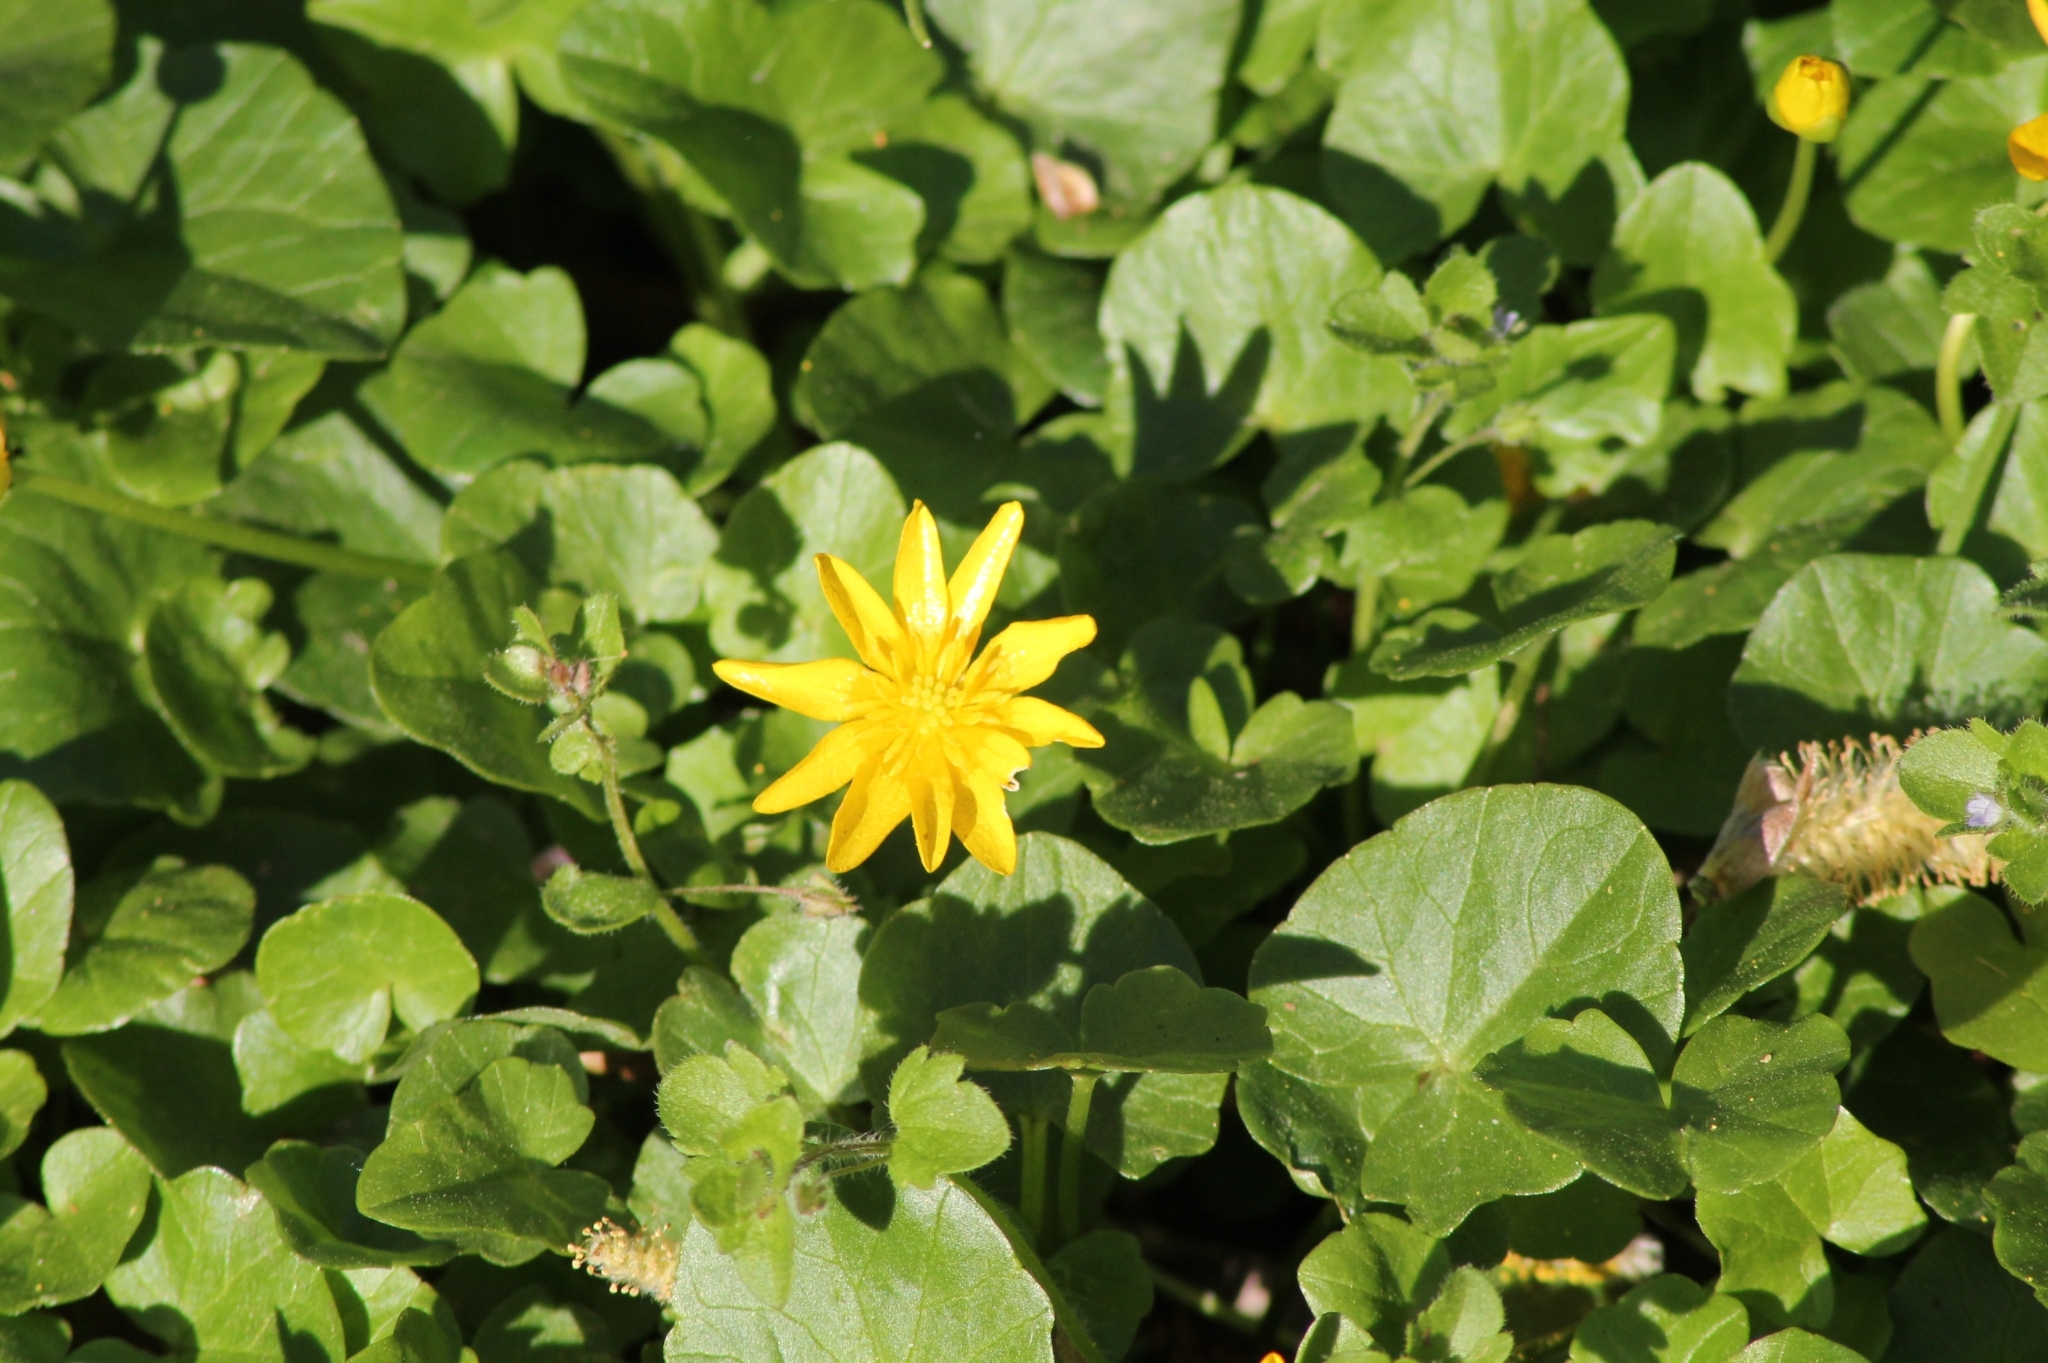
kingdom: Plantae
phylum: Tracheophyta
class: Magnoliopsida
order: Ranunculales
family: Ranunculaceae
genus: Ficaria
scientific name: Ficaria verna
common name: Lesser celandine
